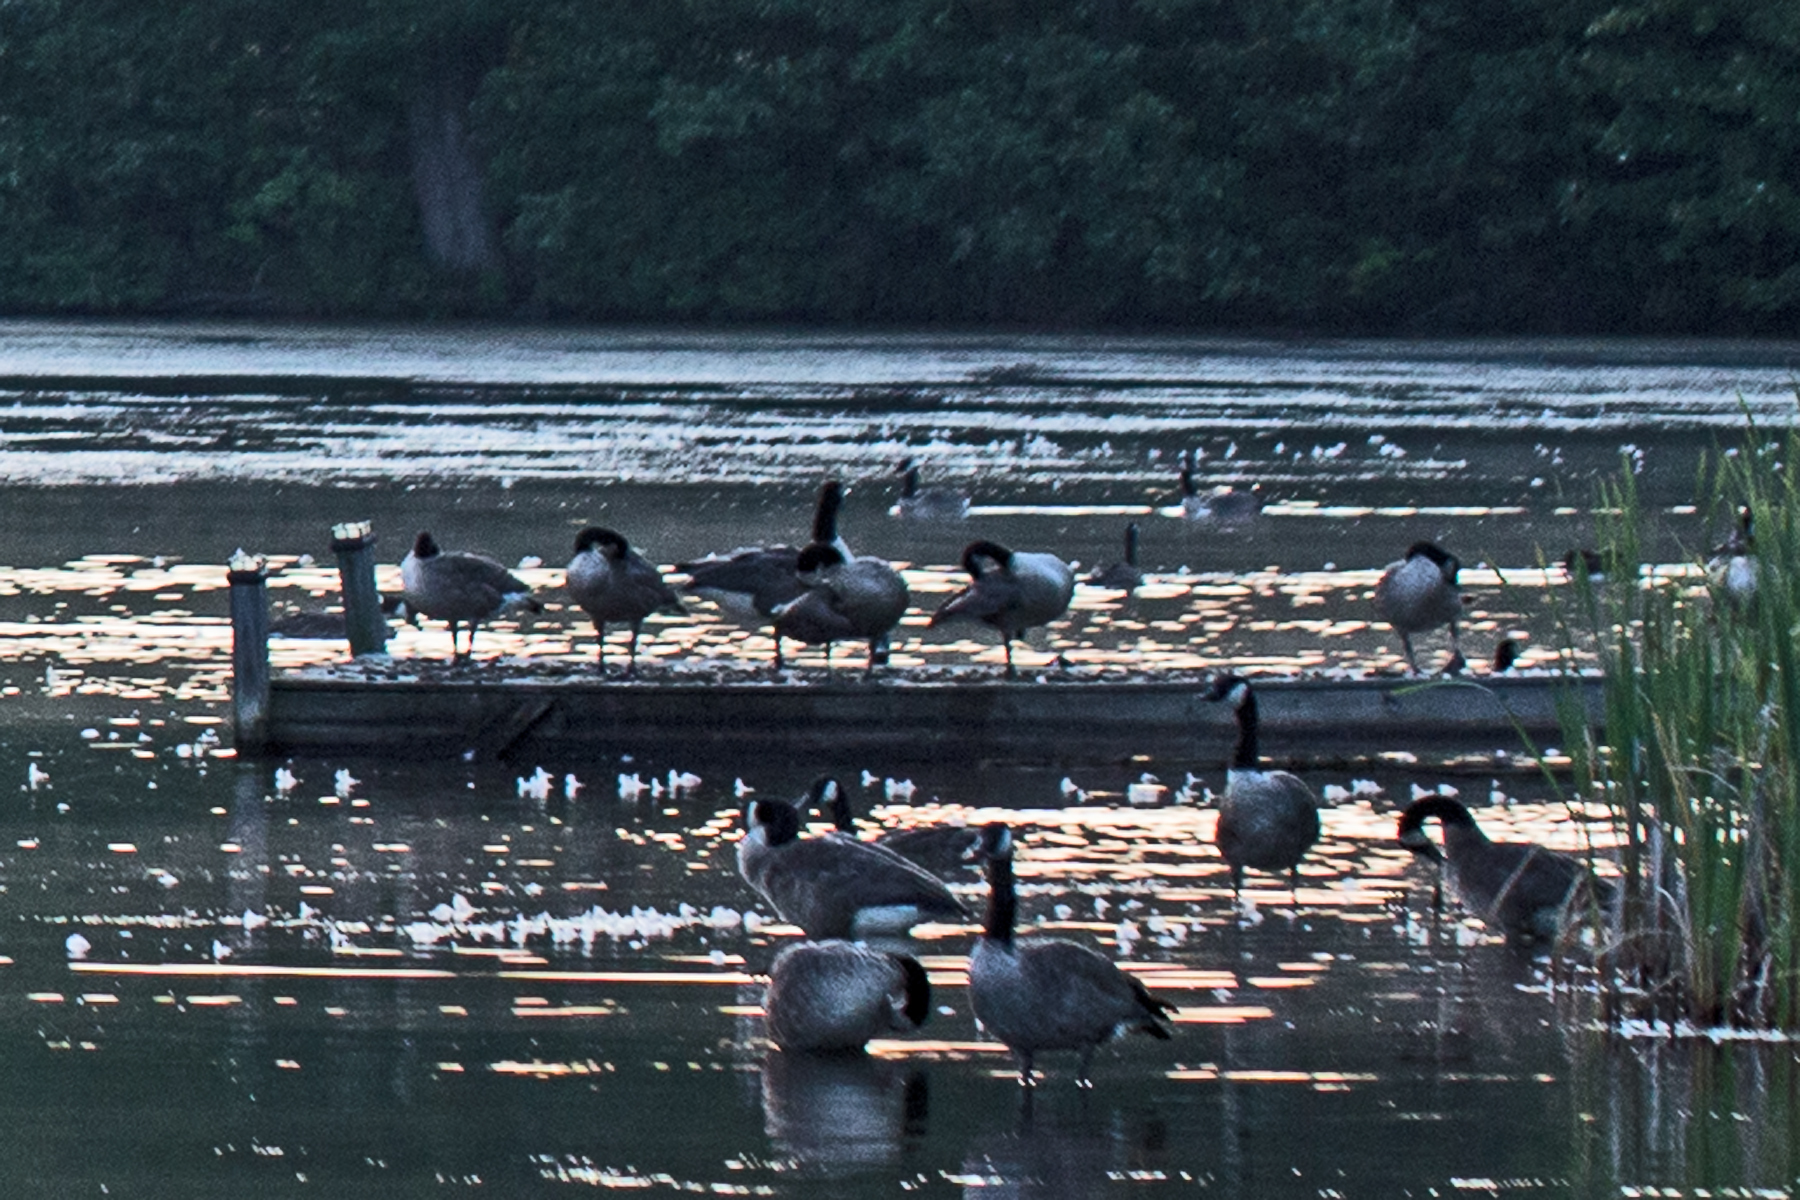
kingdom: Animalia
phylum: Chordata
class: Aves
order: Anseriformes
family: Anatidae
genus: Branta
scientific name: Branta canadensis
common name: Canada goose
